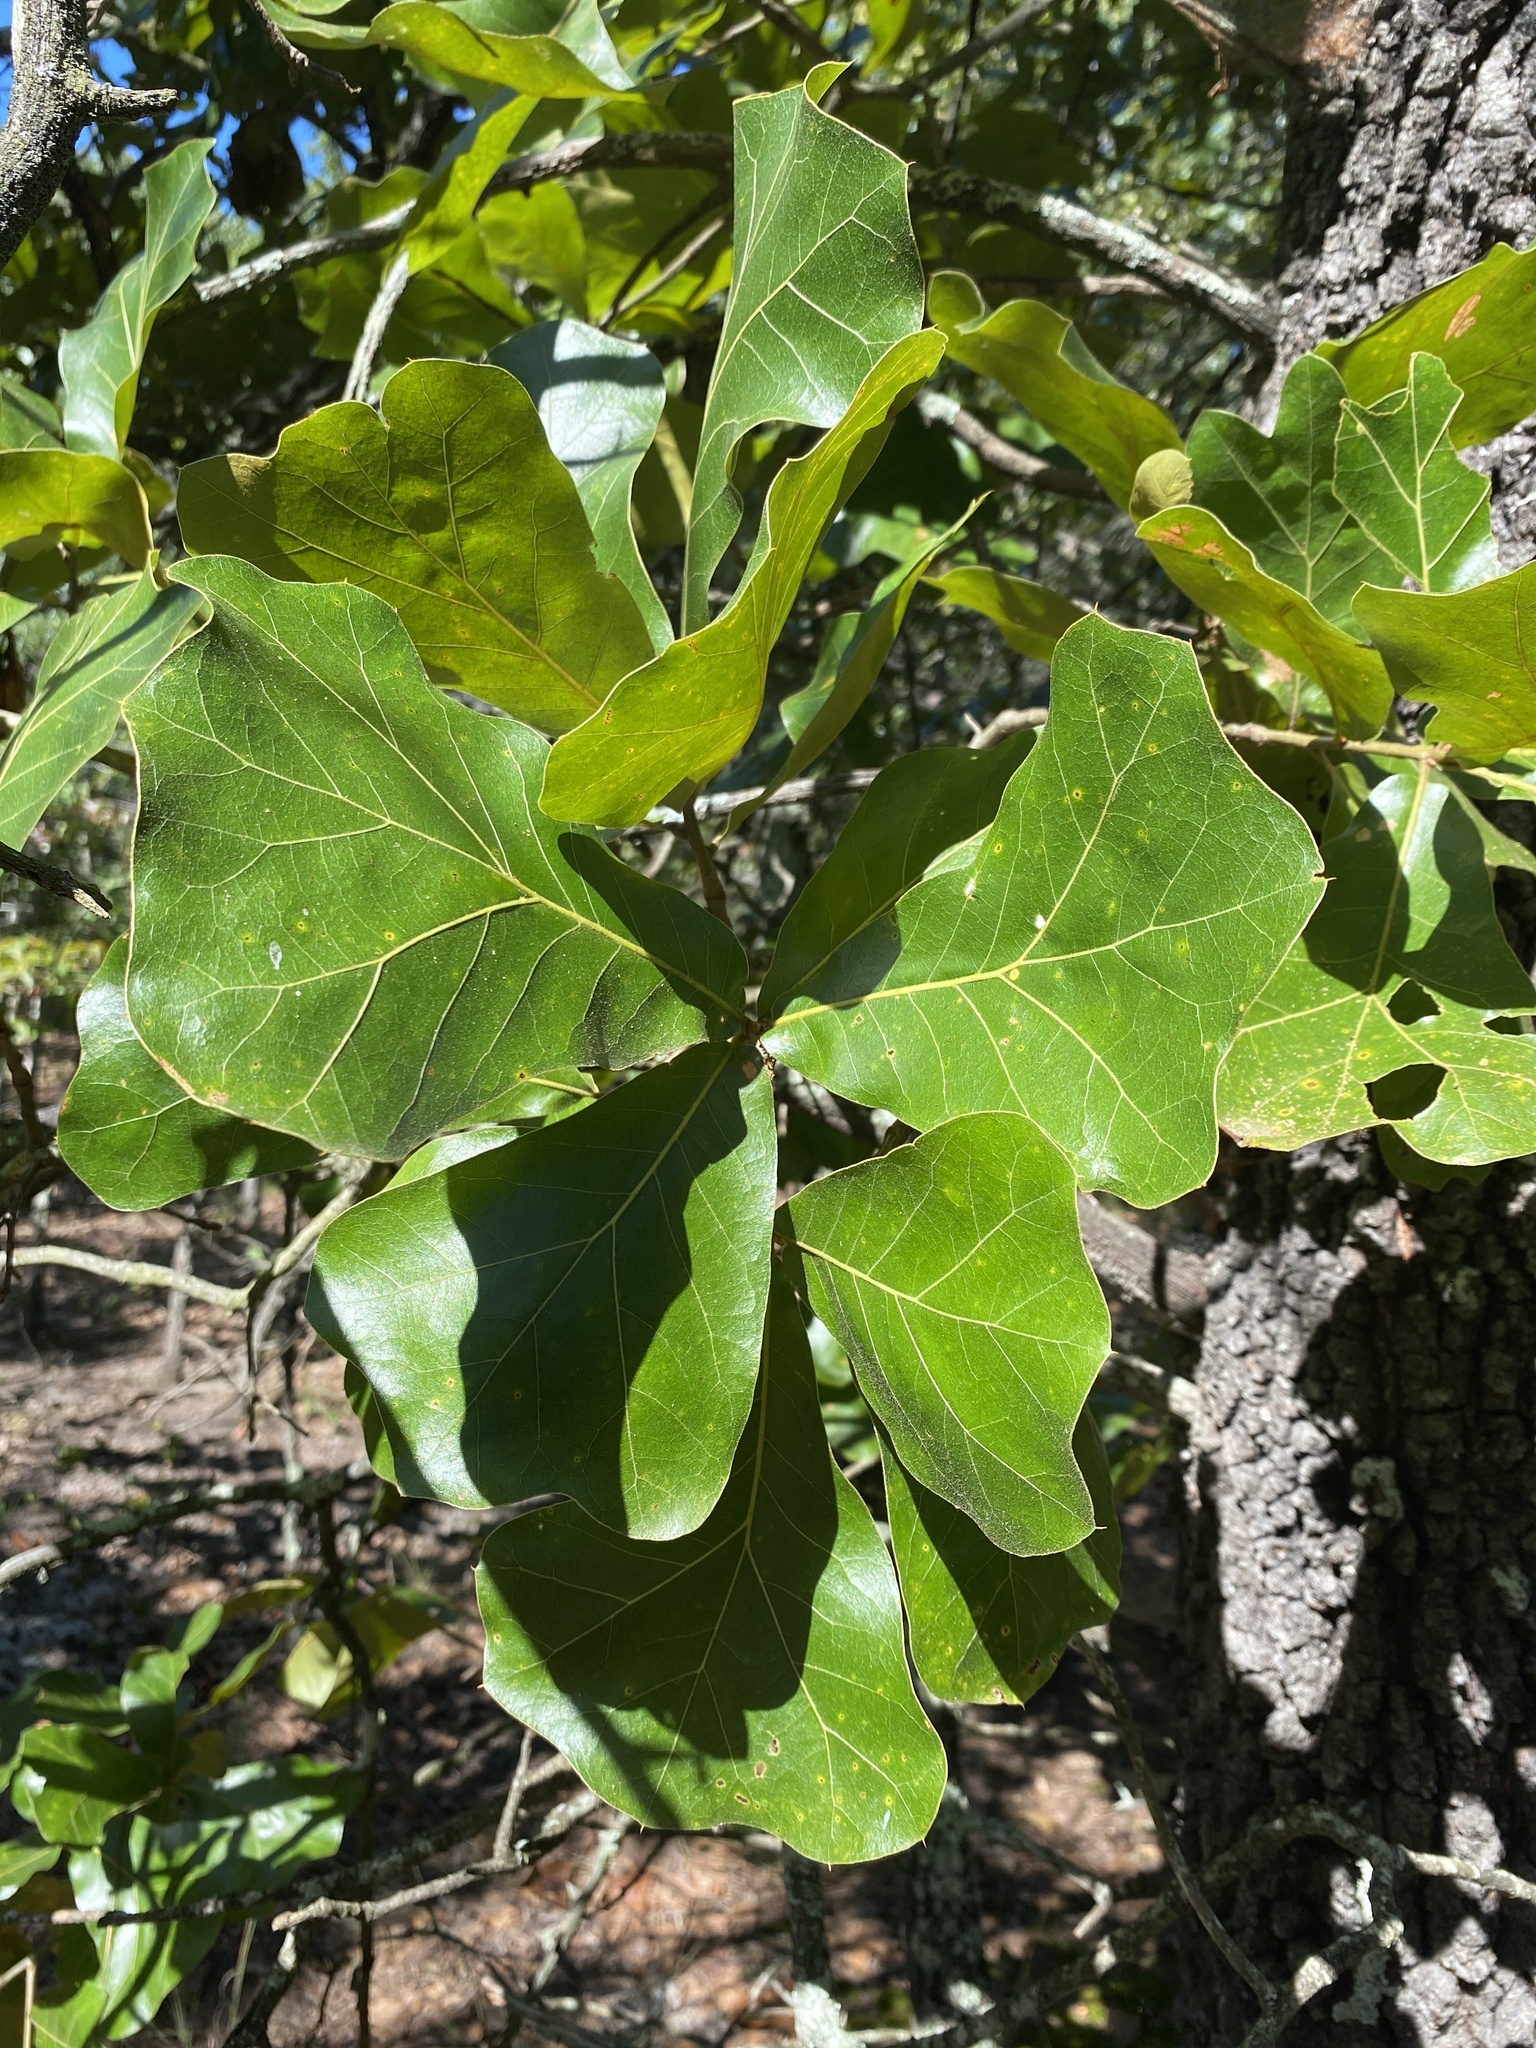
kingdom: Plantae
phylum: Tracheophyta
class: Magnoliopsida
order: Fagales
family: Fagaceae
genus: Quercus
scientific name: Quercus marilandica
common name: Blackjack oak
